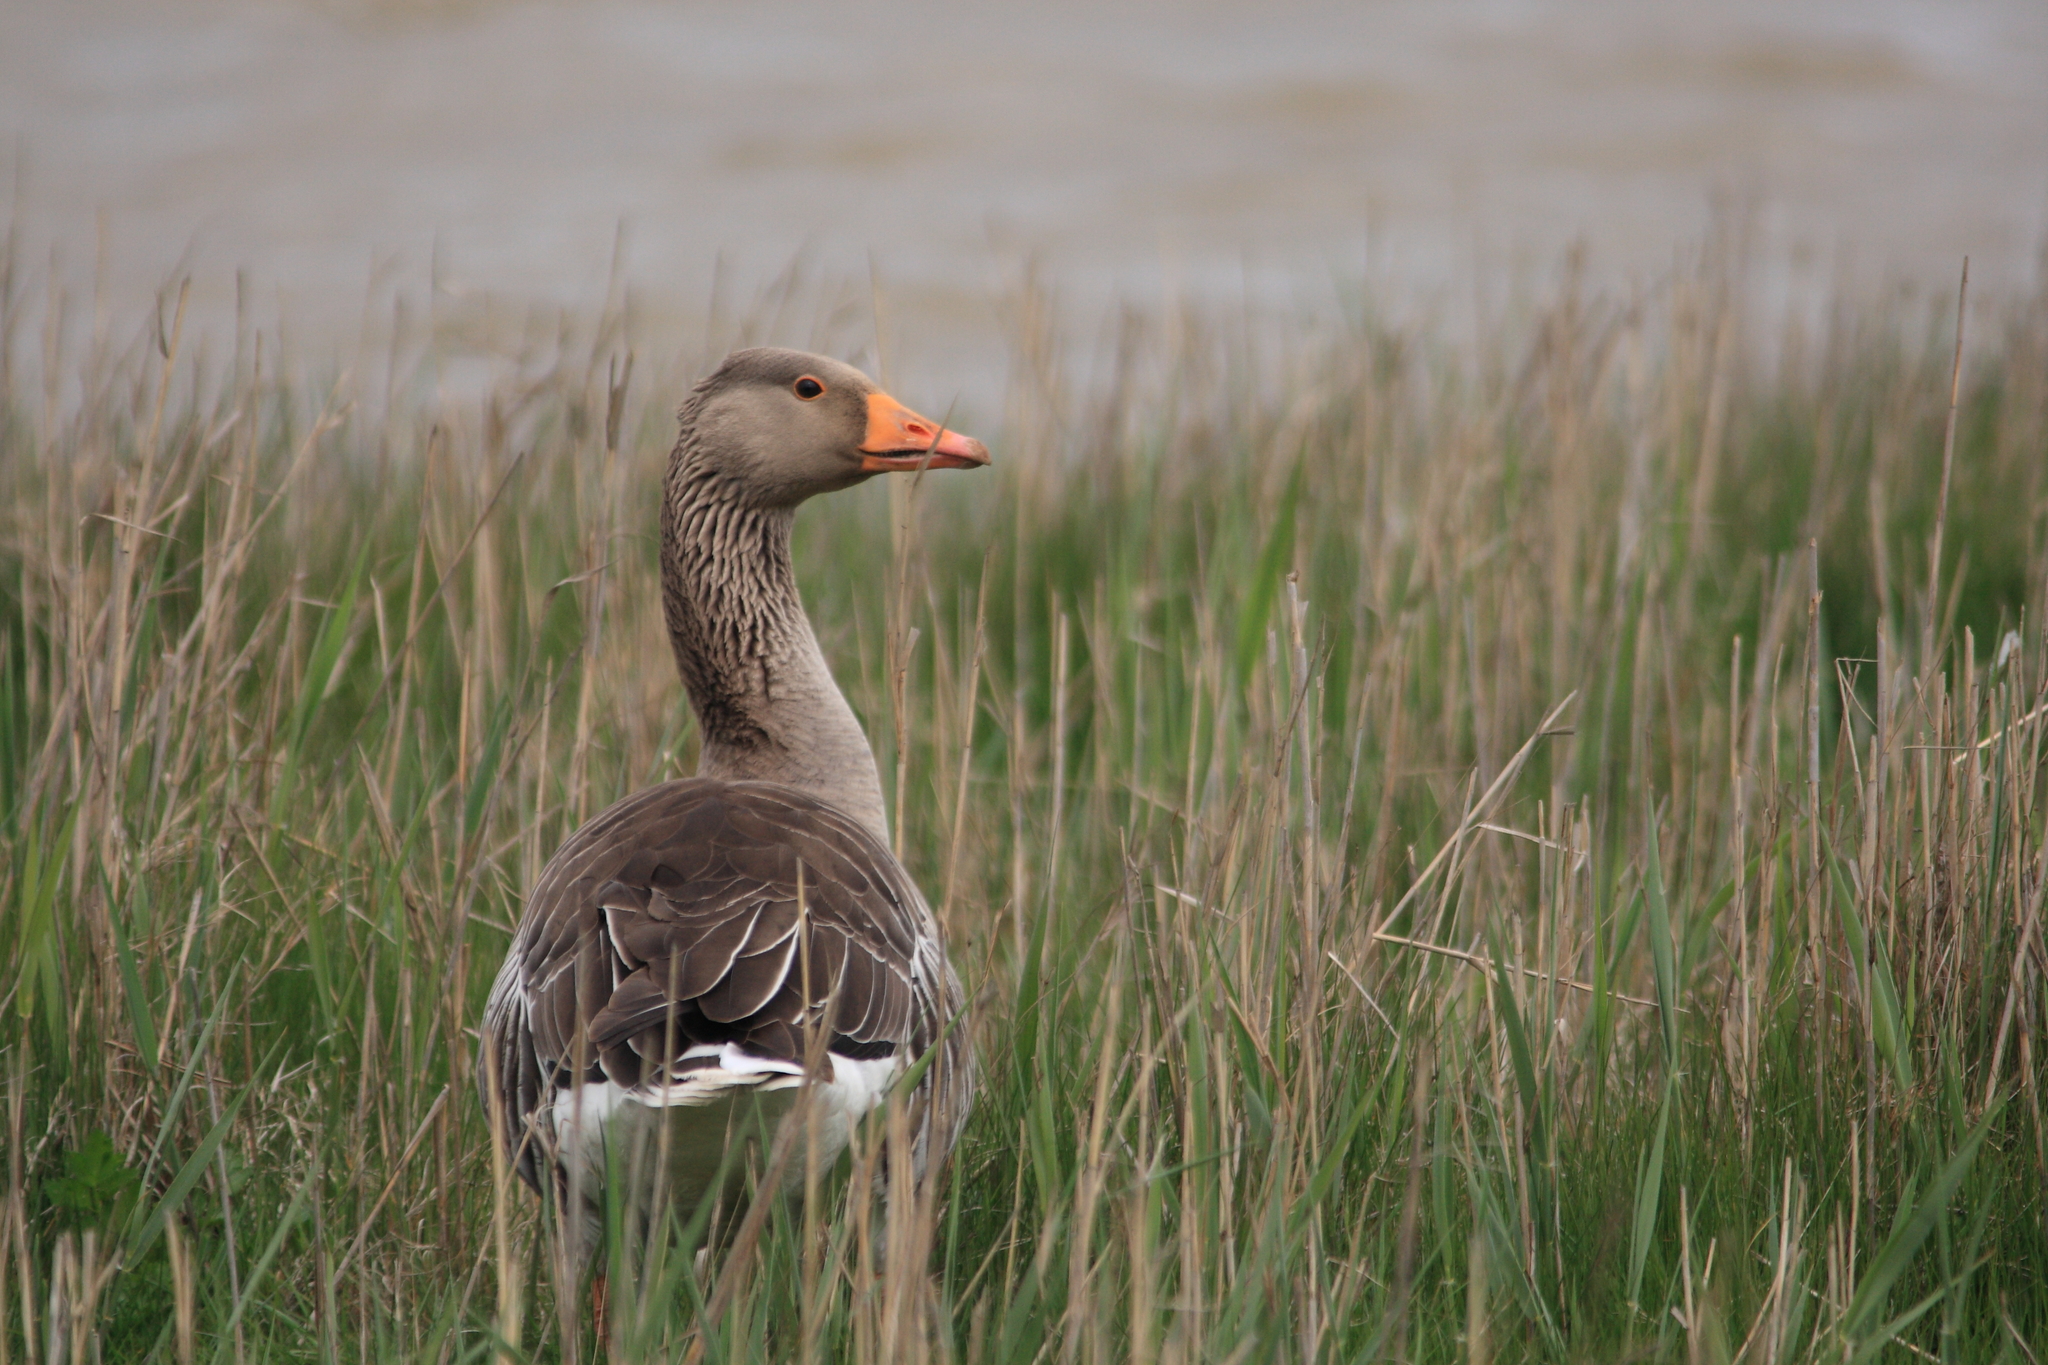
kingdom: Animalia
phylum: Chordata
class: Aves
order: Anseriformes
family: Anatidae
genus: Anser
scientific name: Anser anser
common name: Greylag goose
